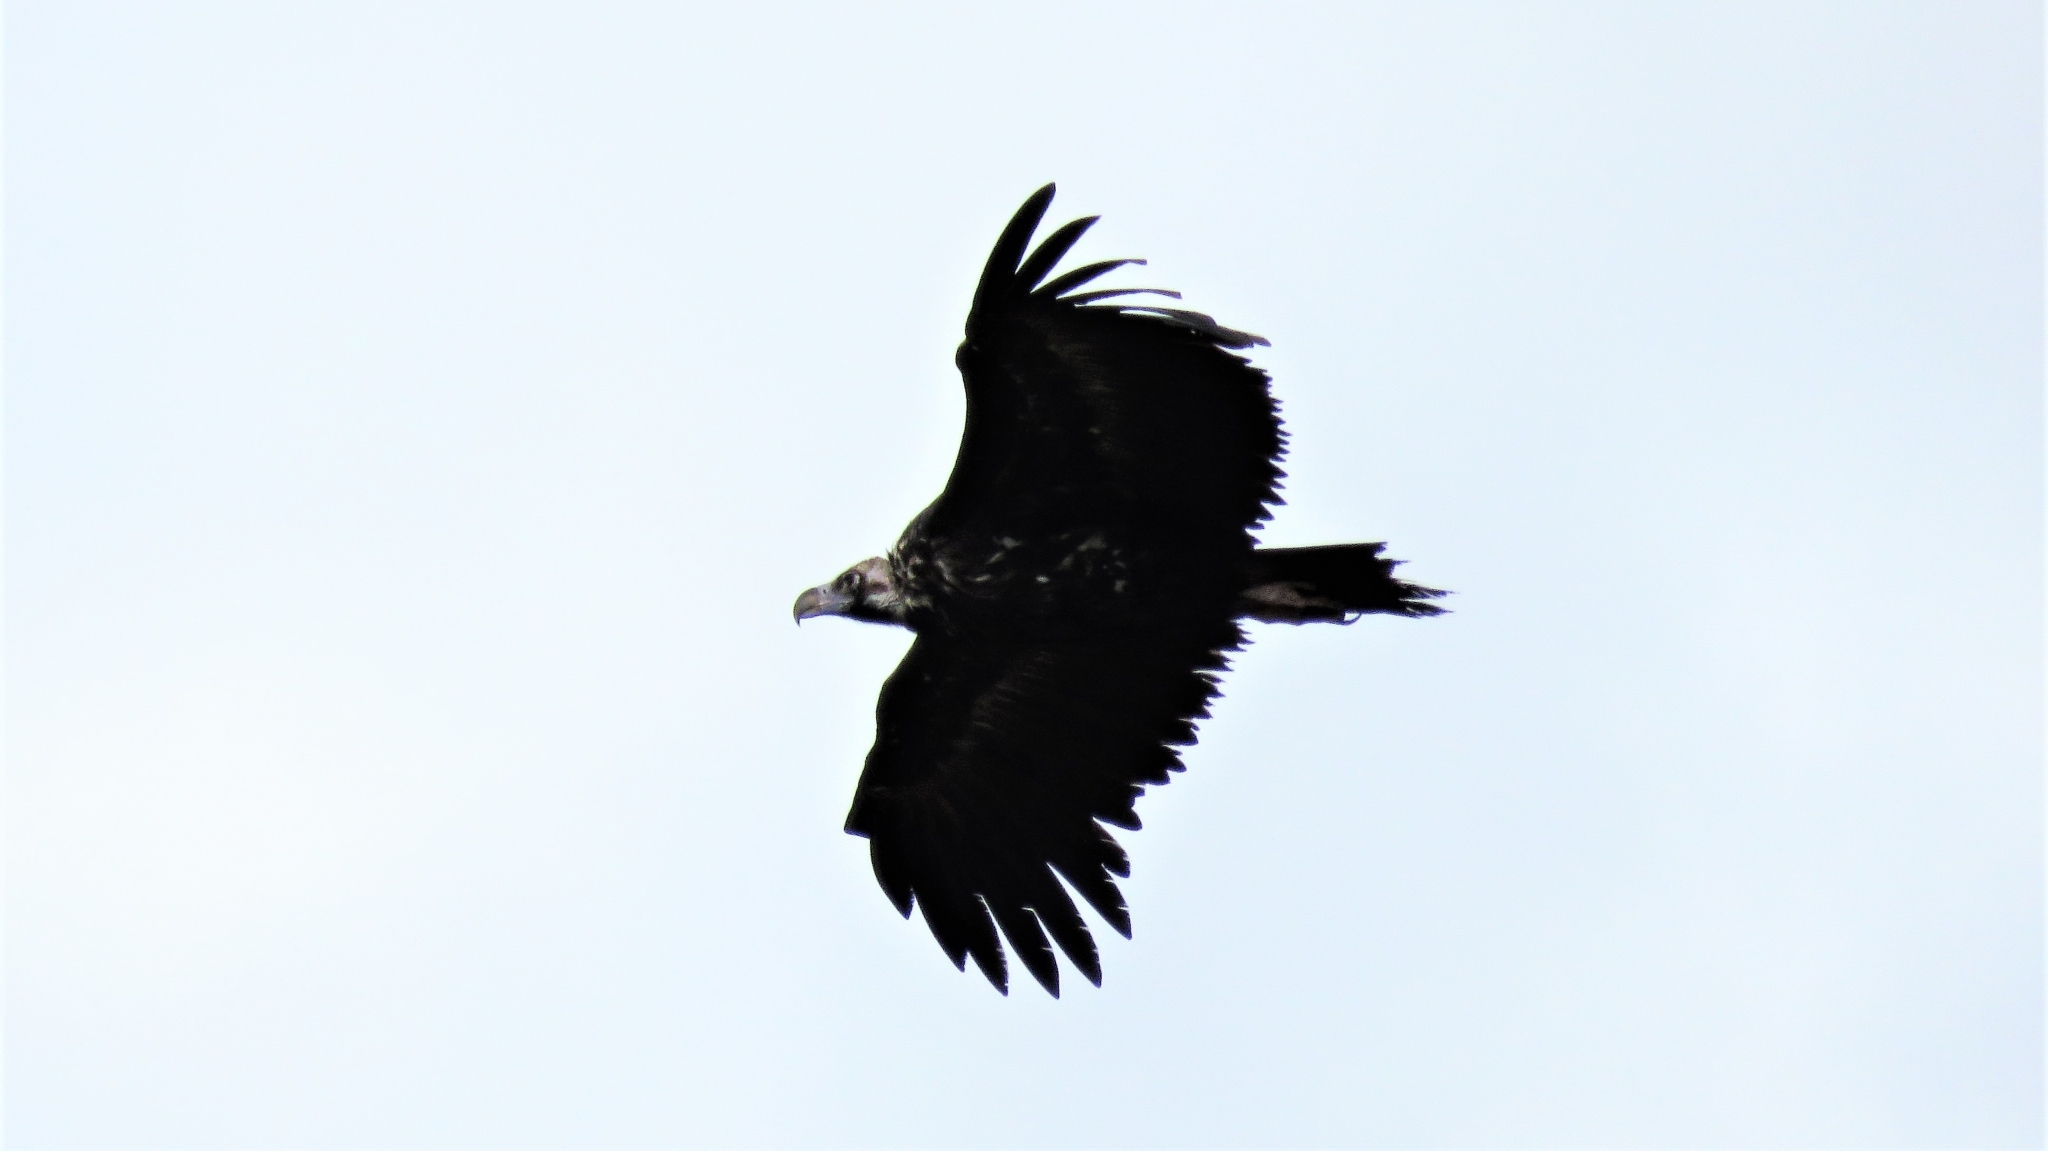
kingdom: Animalia
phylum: Chordata
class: Aves
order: Accipitriformes
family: Accipitridae
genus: Aegypius
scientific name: Aegypius monachus
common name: Cinereous vulture
